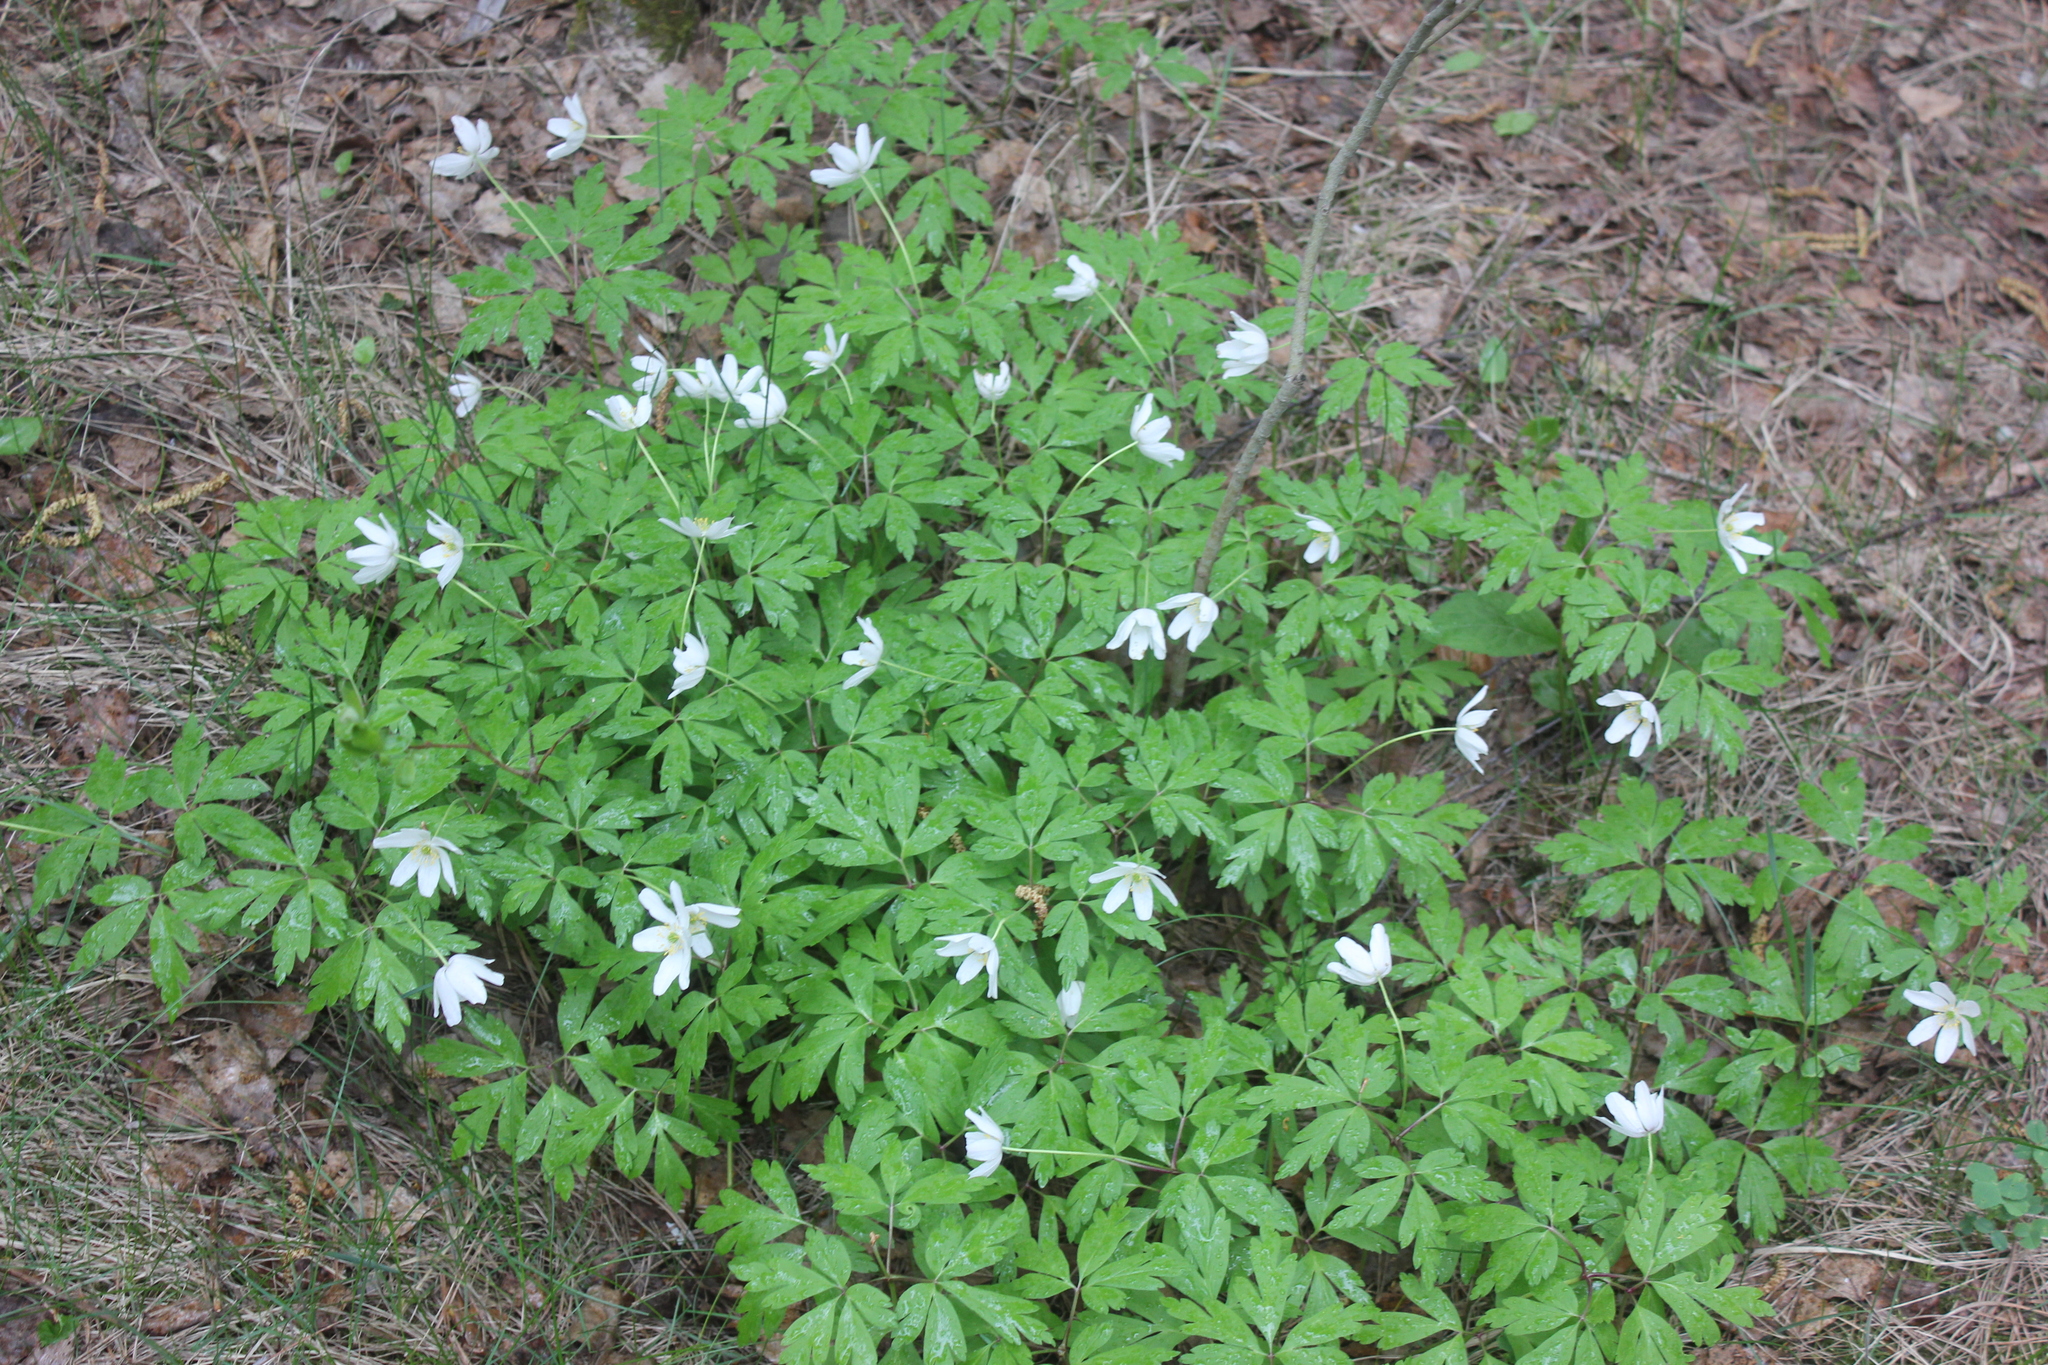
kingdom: Plantae
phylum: Tracheophyta
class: Magnoliopsida
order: Ranunculales
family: Ranunculaceae
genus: Anemone
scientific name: Anemone nemorosa
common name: Wood anemone
